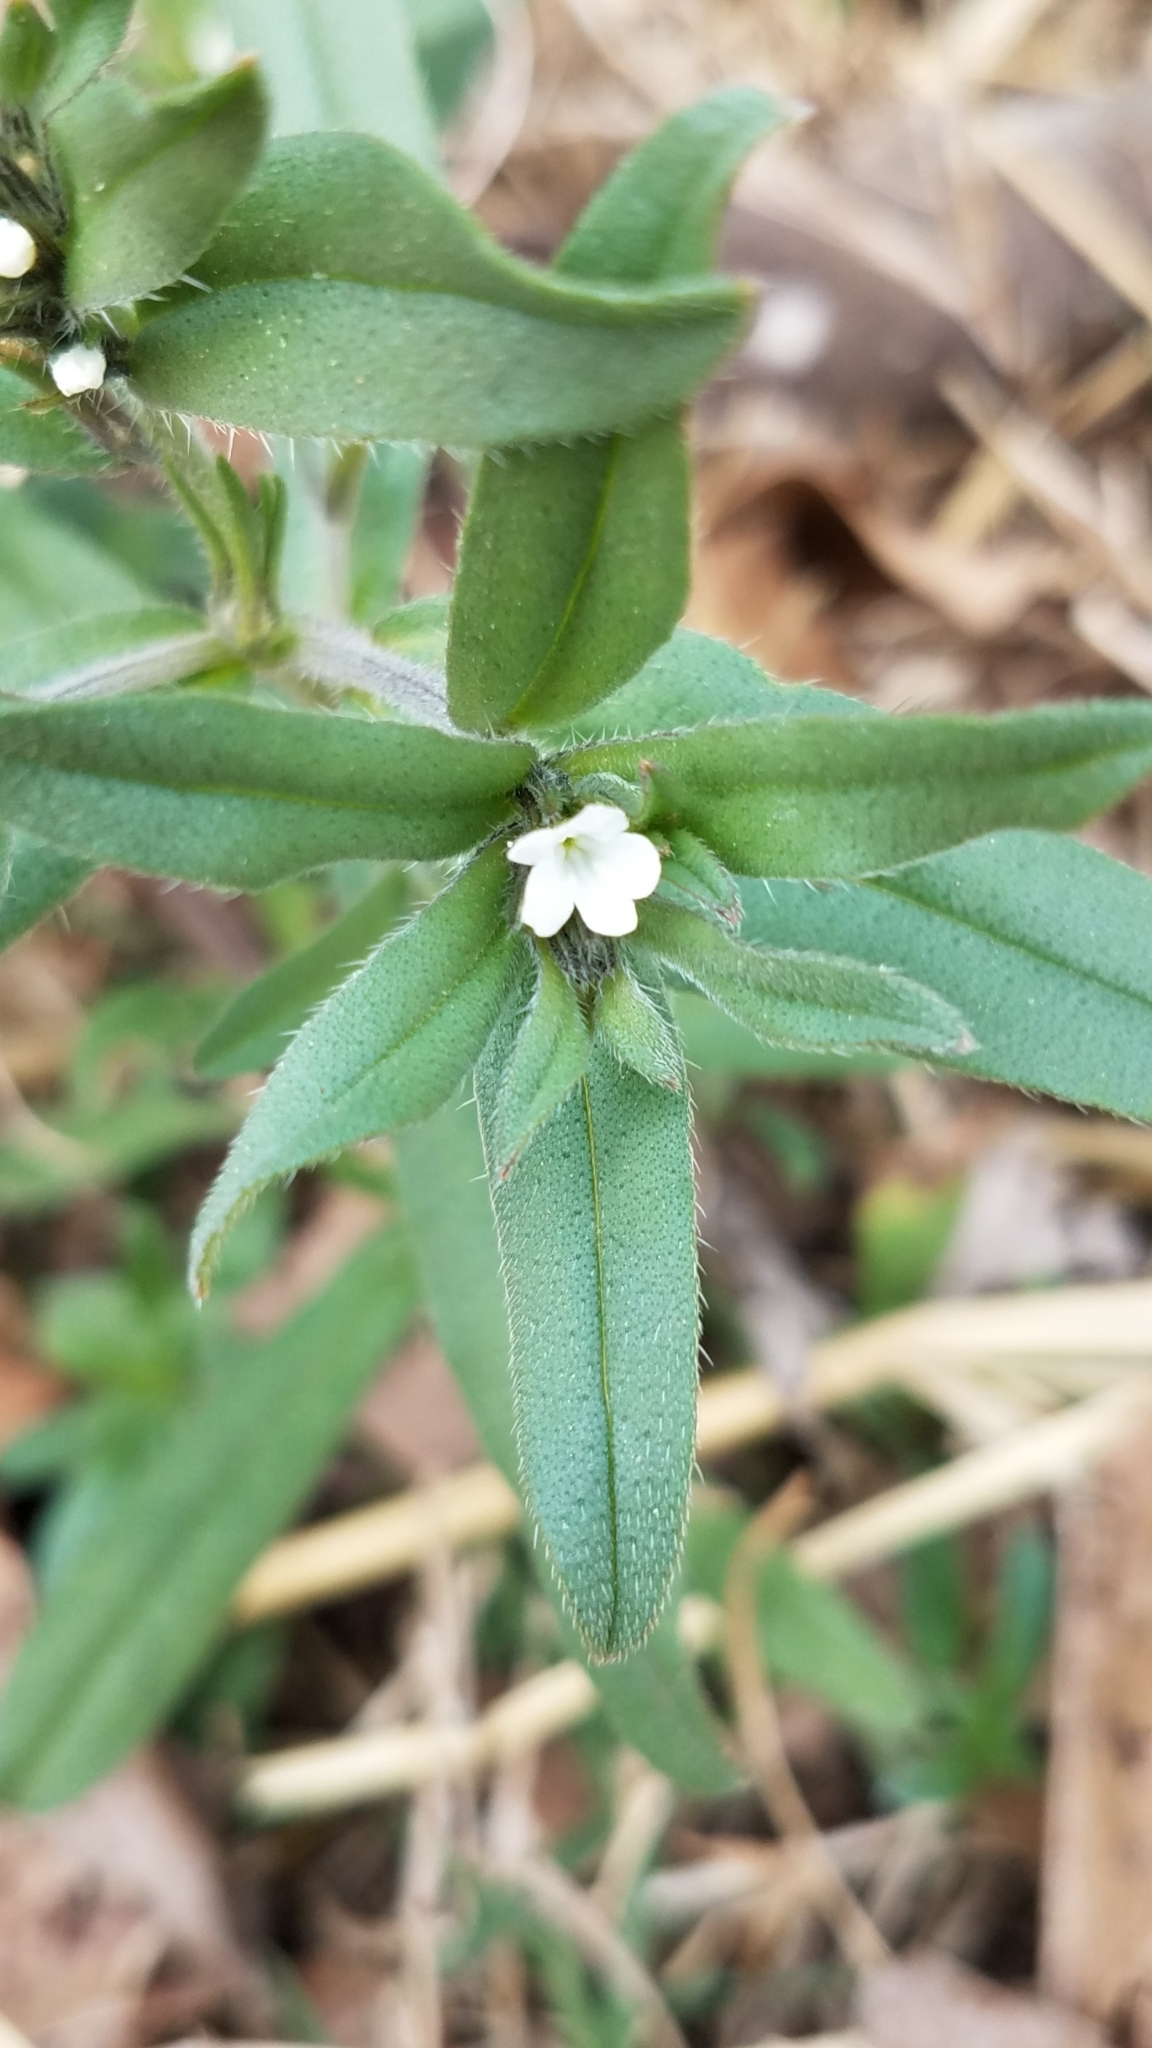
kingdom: Plantae
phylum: Tracheophyta
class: Magnoliopsida
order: Boraginales
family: Boraginaceae
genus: Buglossoides
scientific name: Buglossoides arvensis
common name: Corn gromwell
